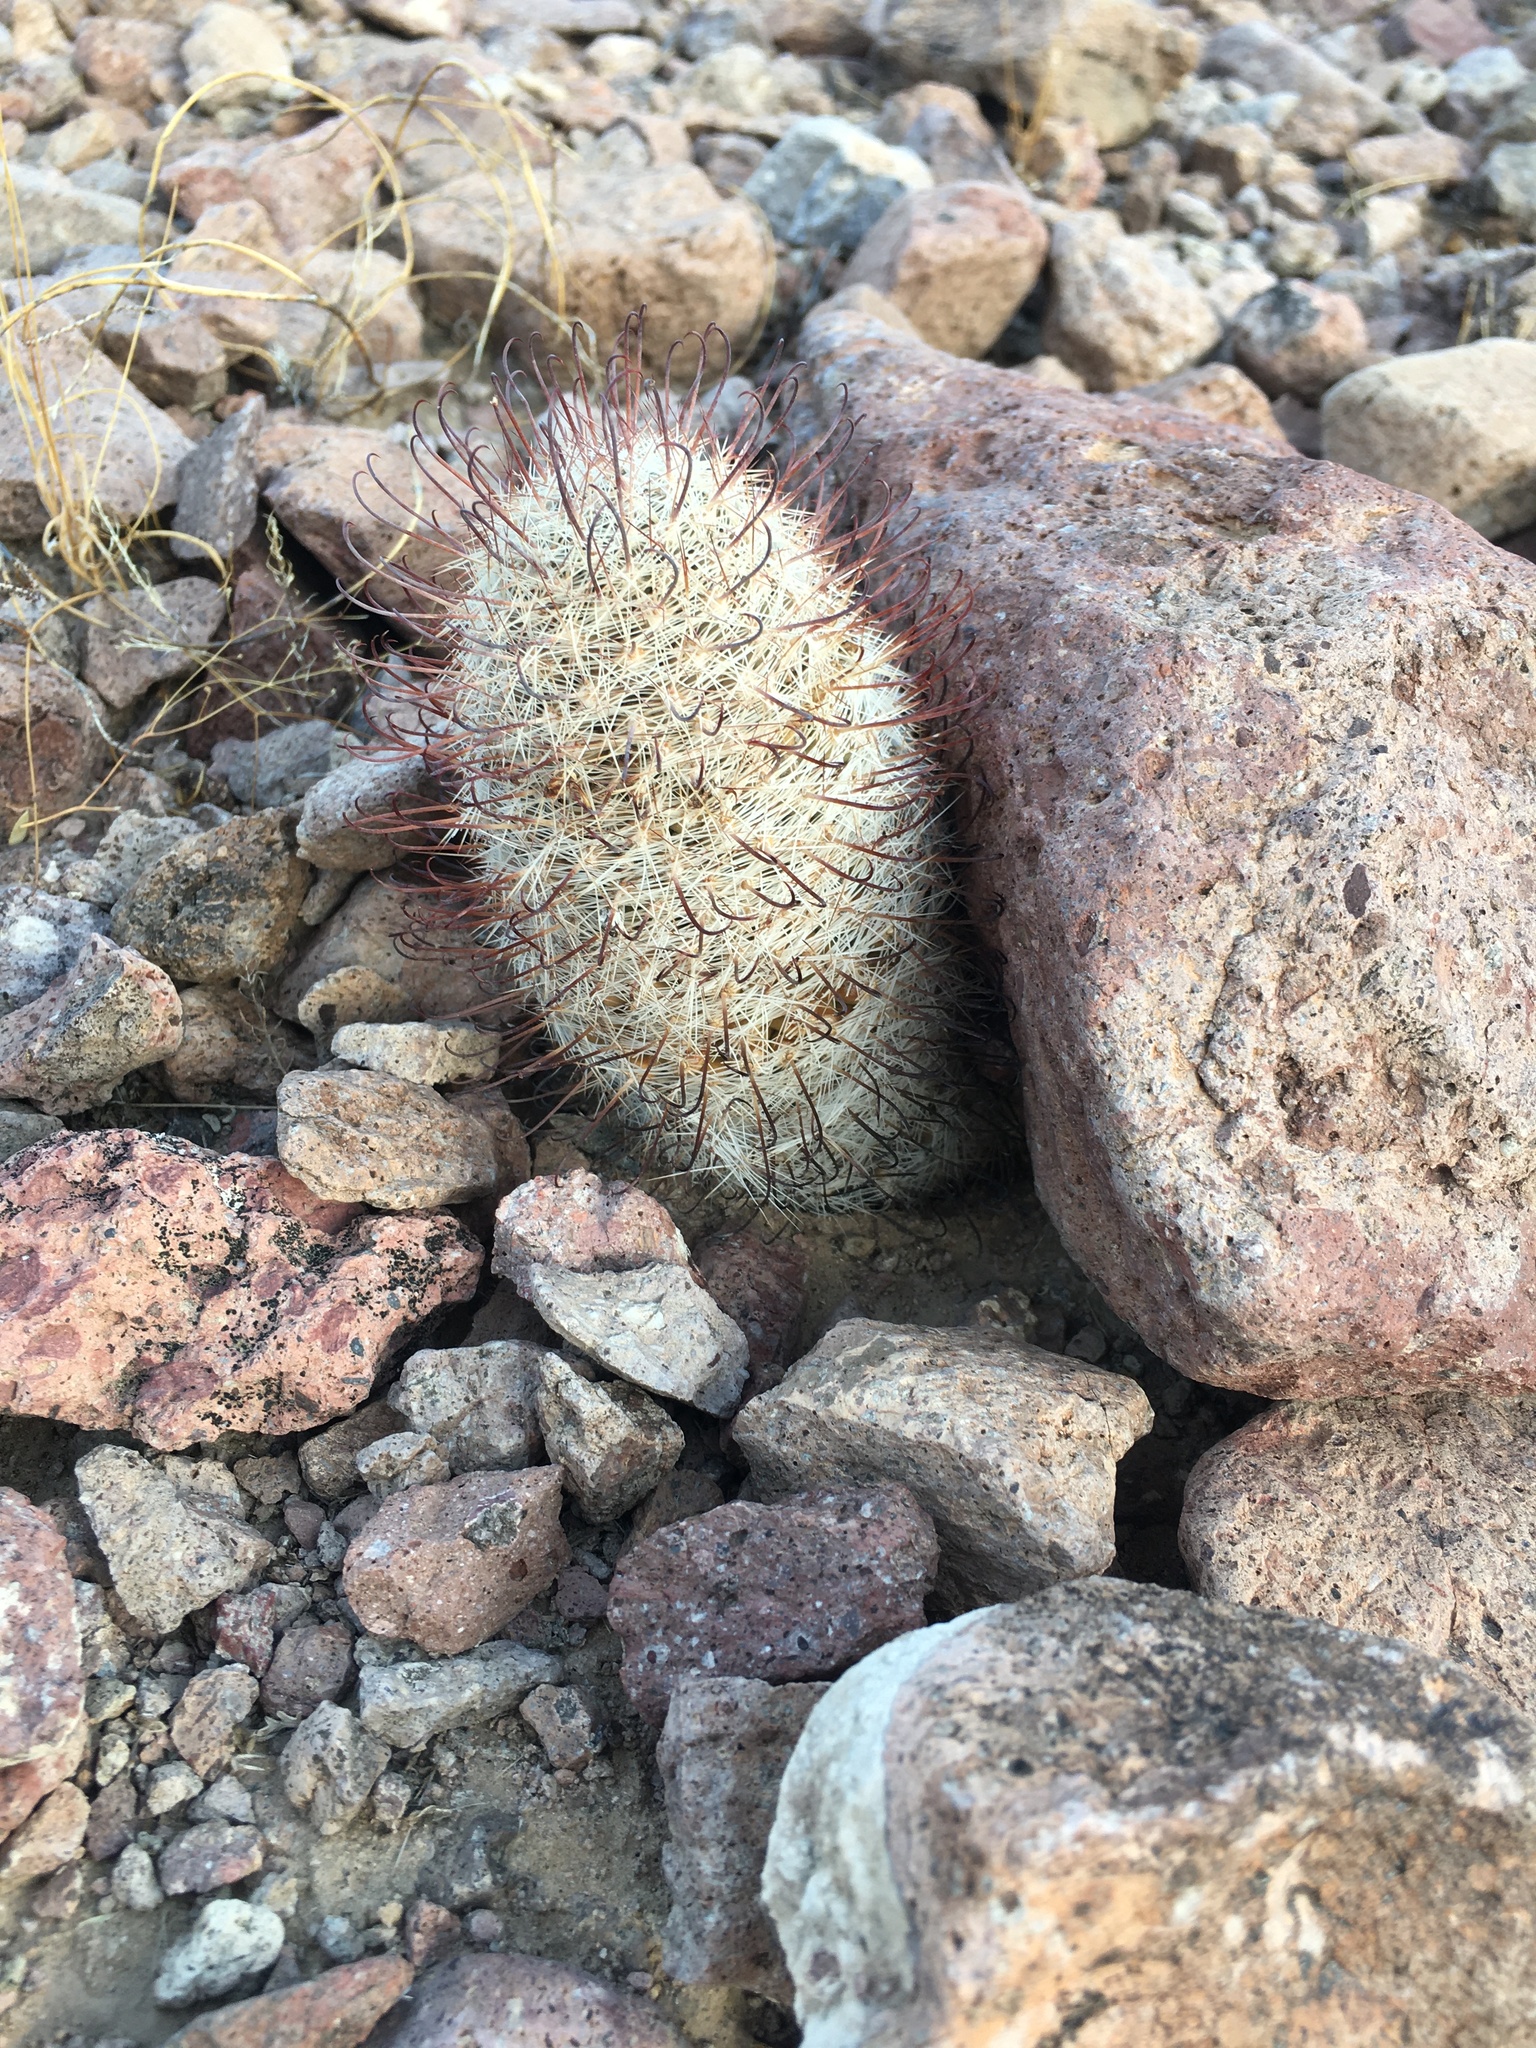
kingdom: Plantae
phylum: Tracheophyta
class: Magnoliopsida
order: Caryophyllales
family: Cactaceae
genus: Cochemiea
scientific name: Cochemiea grahamii
